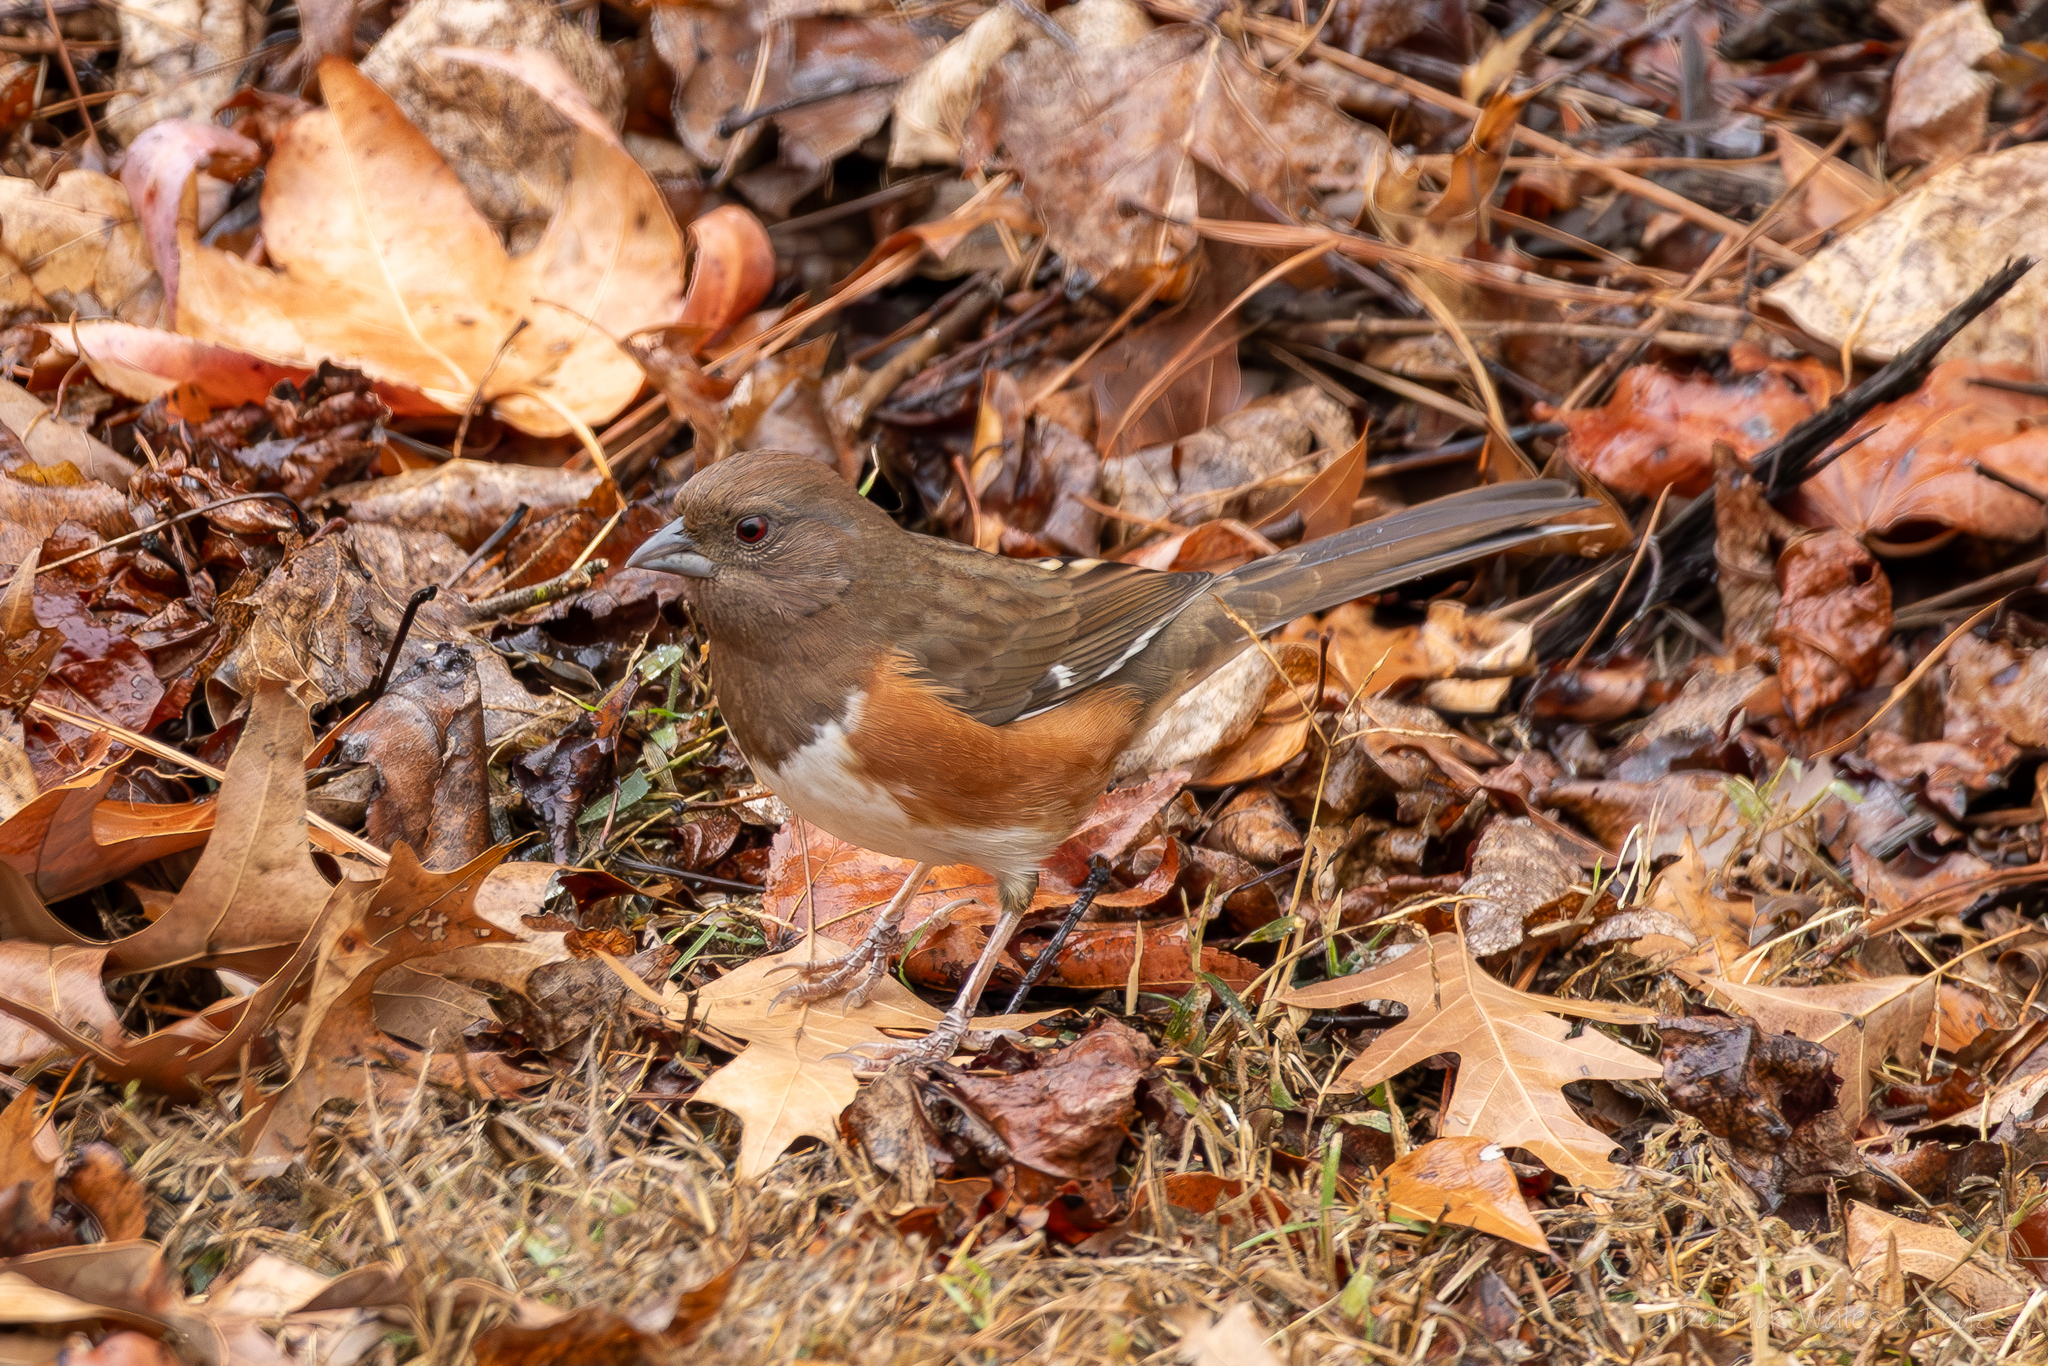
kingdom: Animalia
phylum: Chordata
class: Aves
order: Passeriformes
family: Passerellidae
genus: Pipilo
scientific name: Pipilo erythrophthalmus
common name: Eastern towhee
